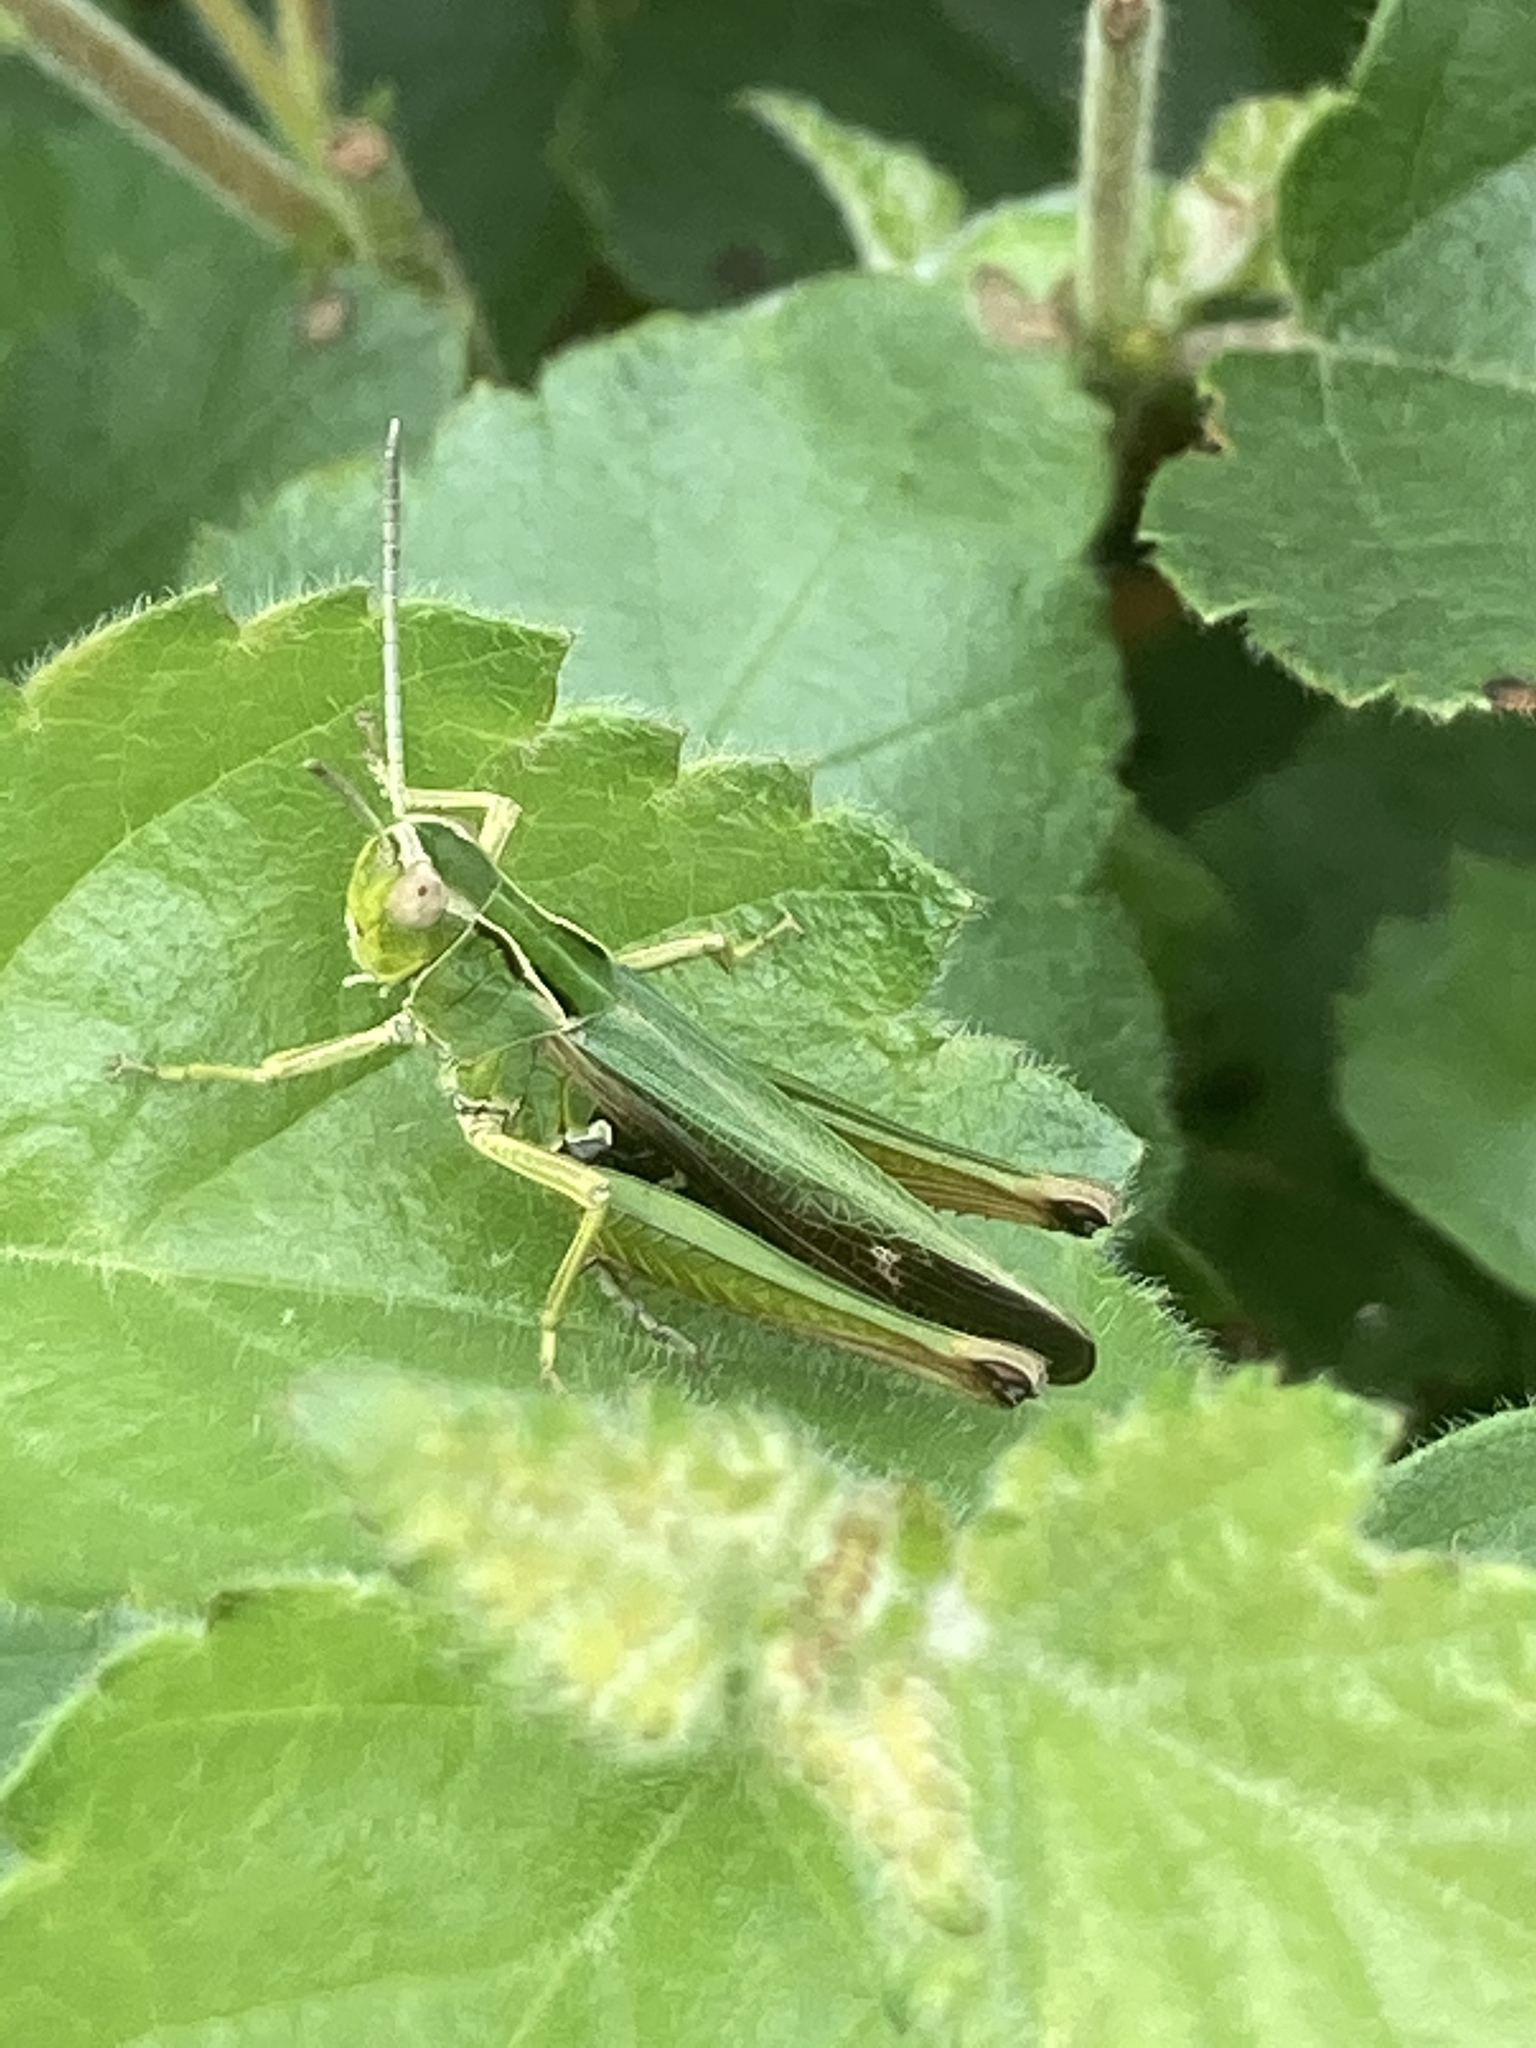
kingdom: Animalia
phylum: Arthropoda
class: Insecta
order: Orthoptera
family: Acrididae
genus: Omocestus
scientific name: Omocestus viridulus
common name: Common green grasshopper
